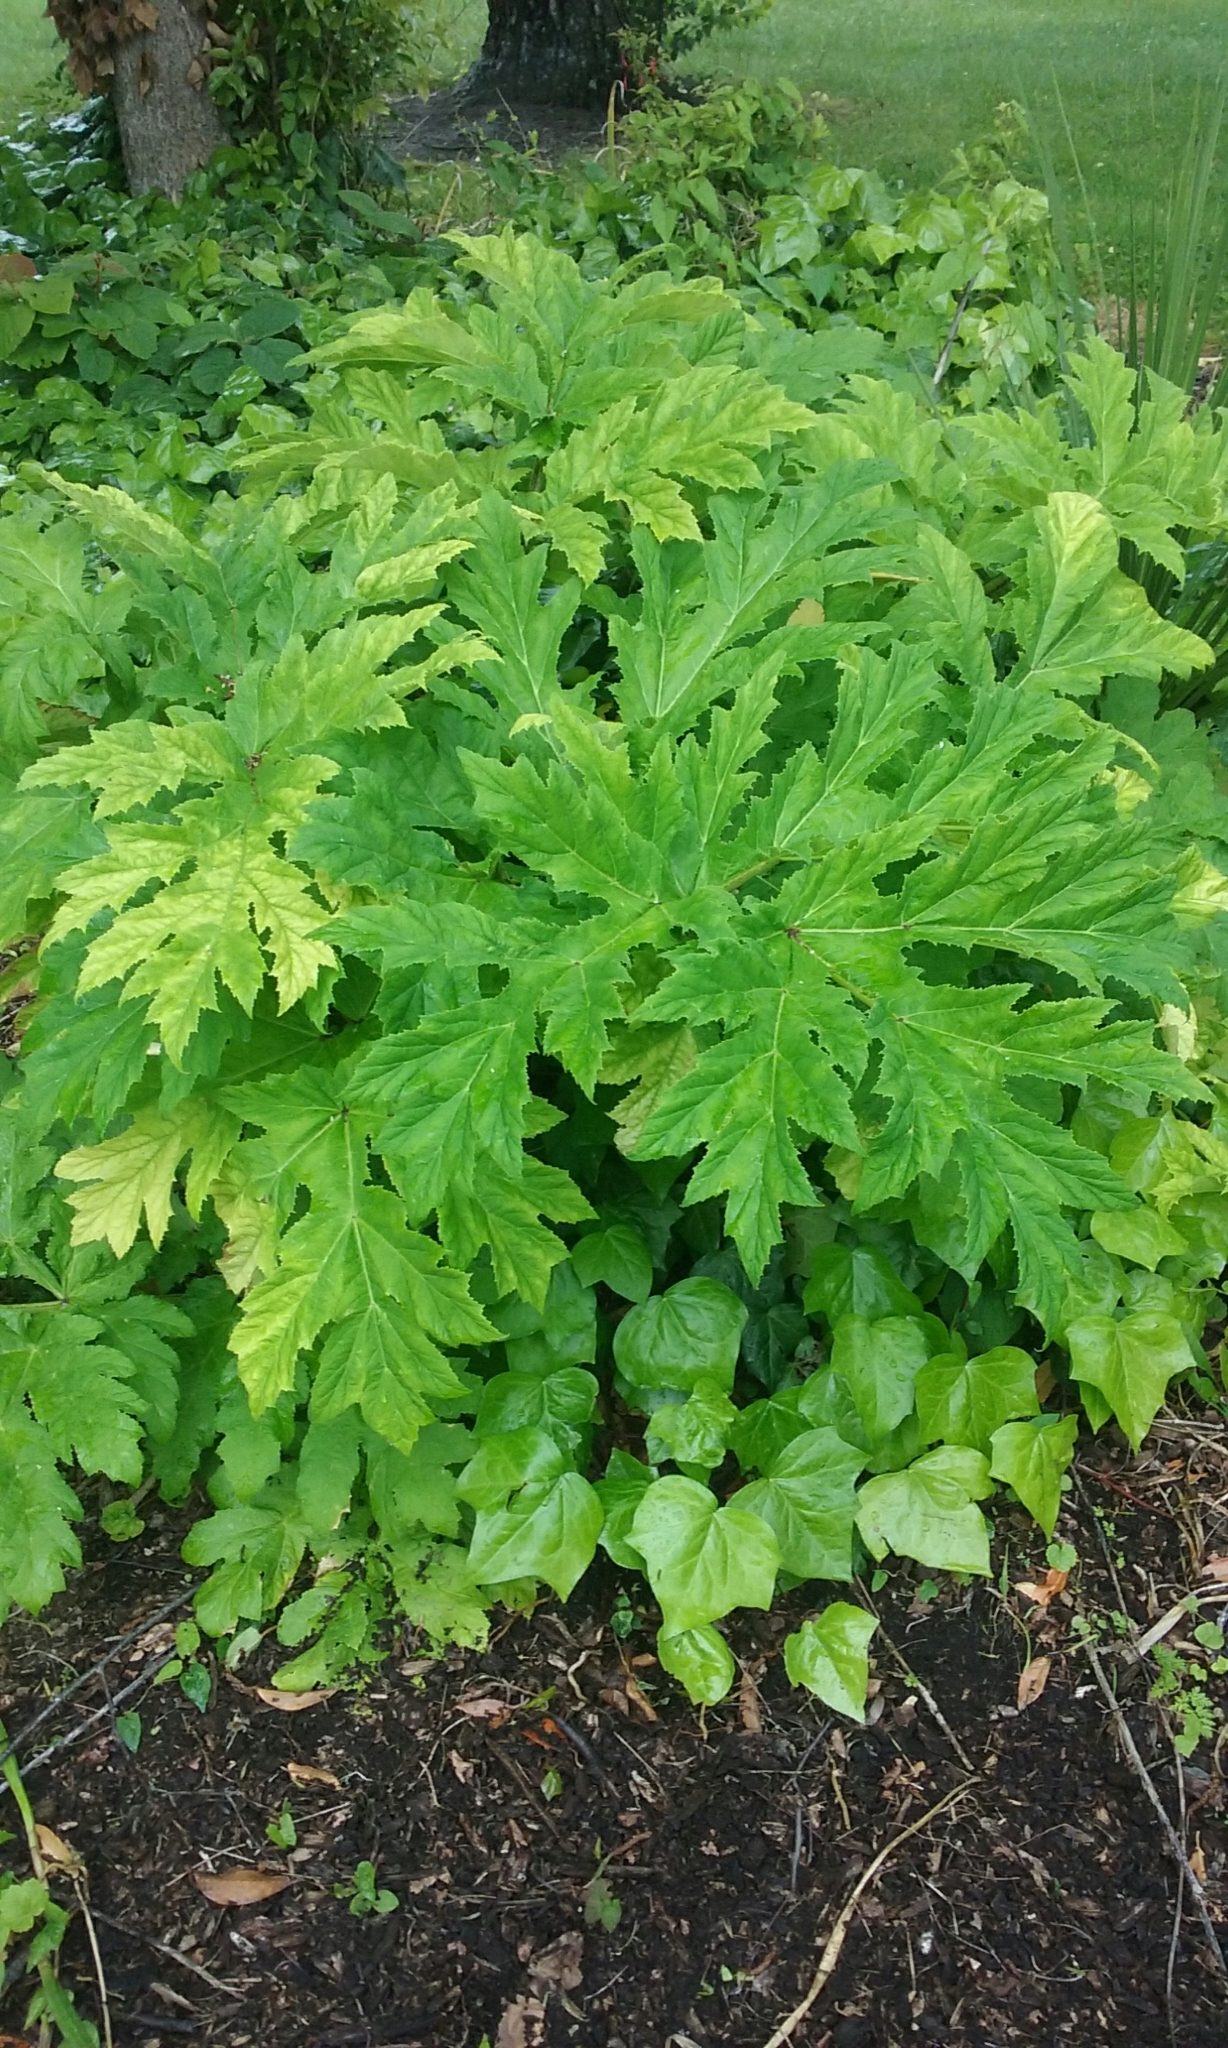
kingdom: Plantae
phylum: Tracheophyta
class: Magnoliopsida
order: Apiales
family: Apiaceae
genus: Heracleum
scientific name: Heracleum mantegazzianum
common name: Giant hogweed
